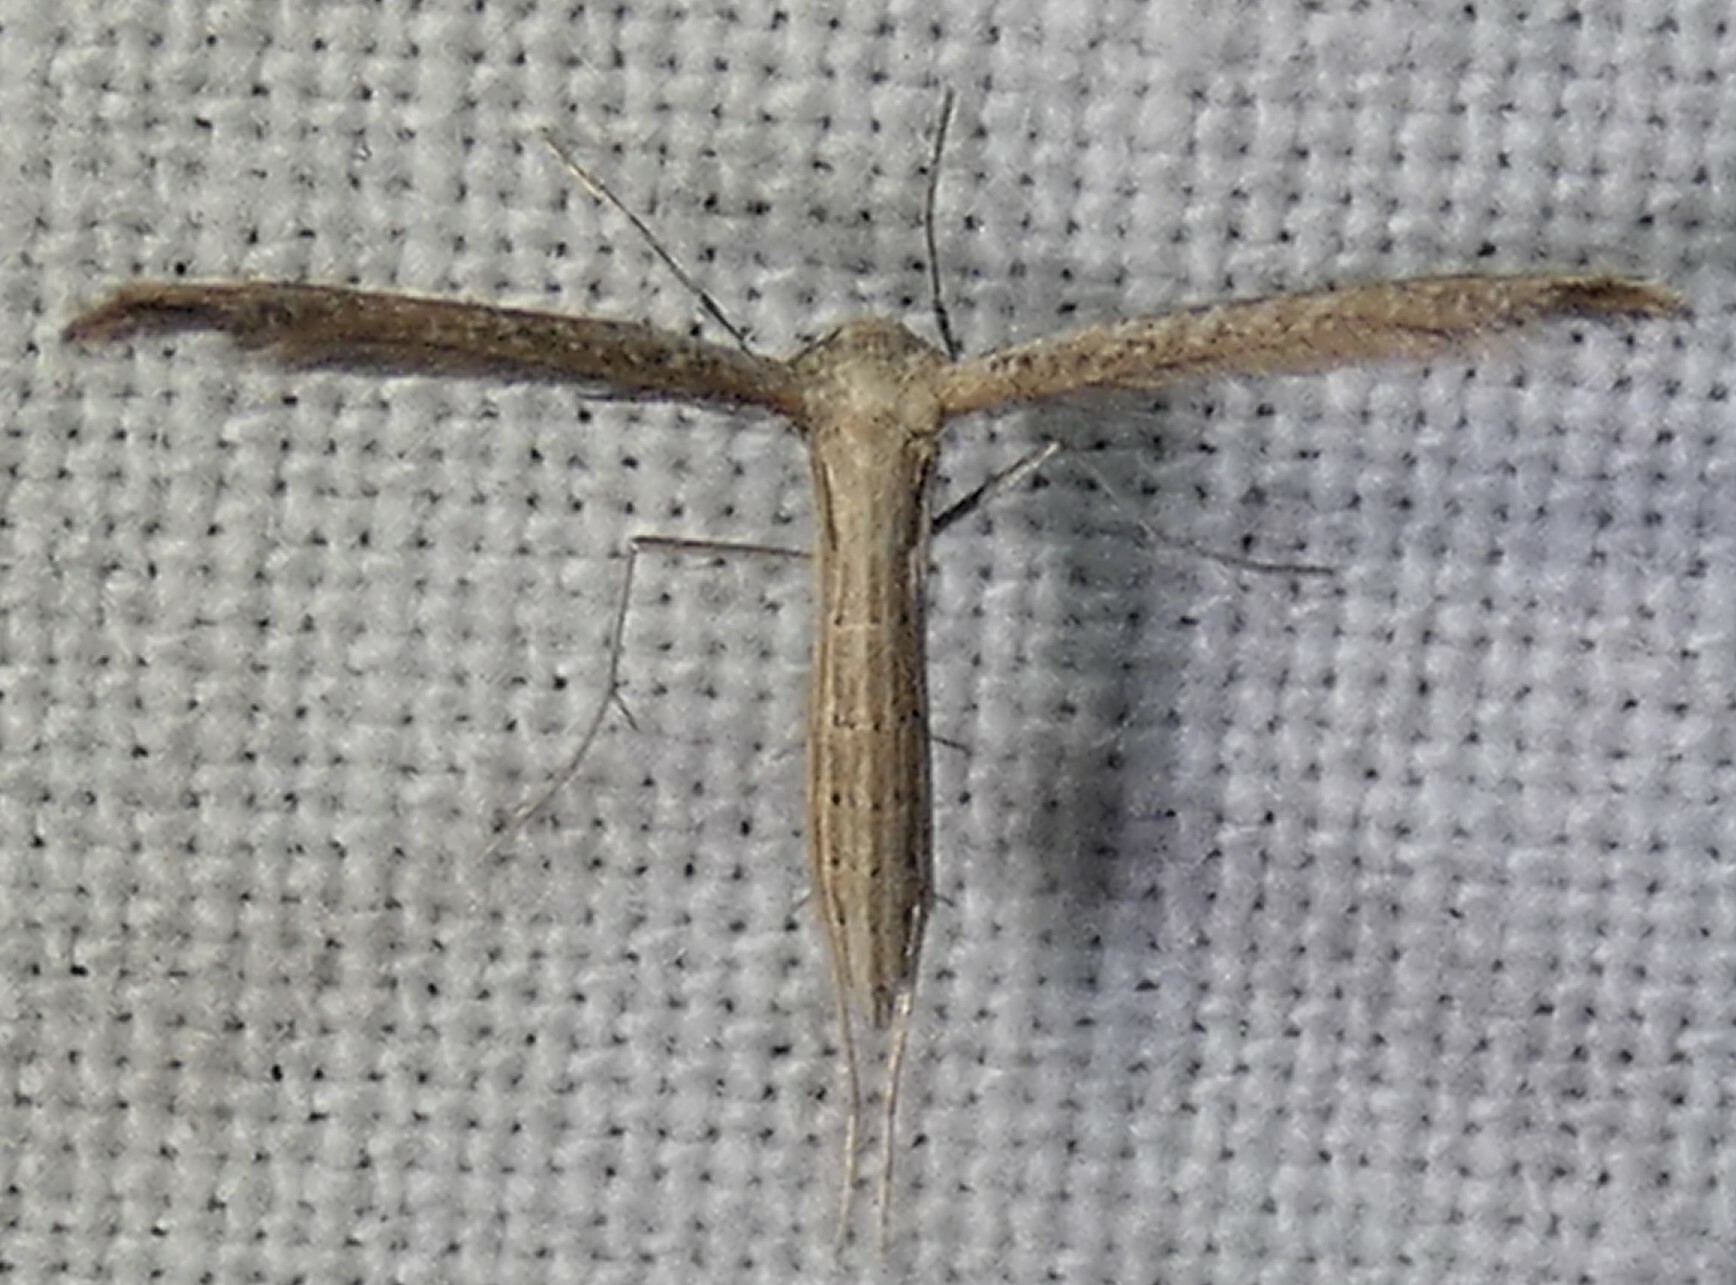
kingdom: Animalia
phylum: Arthropoda
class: Insecta
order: Lepidoptera
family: Pterophoridae
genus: Lioptilodes
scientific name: Lioptilodes albistriolatus
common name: Moth
